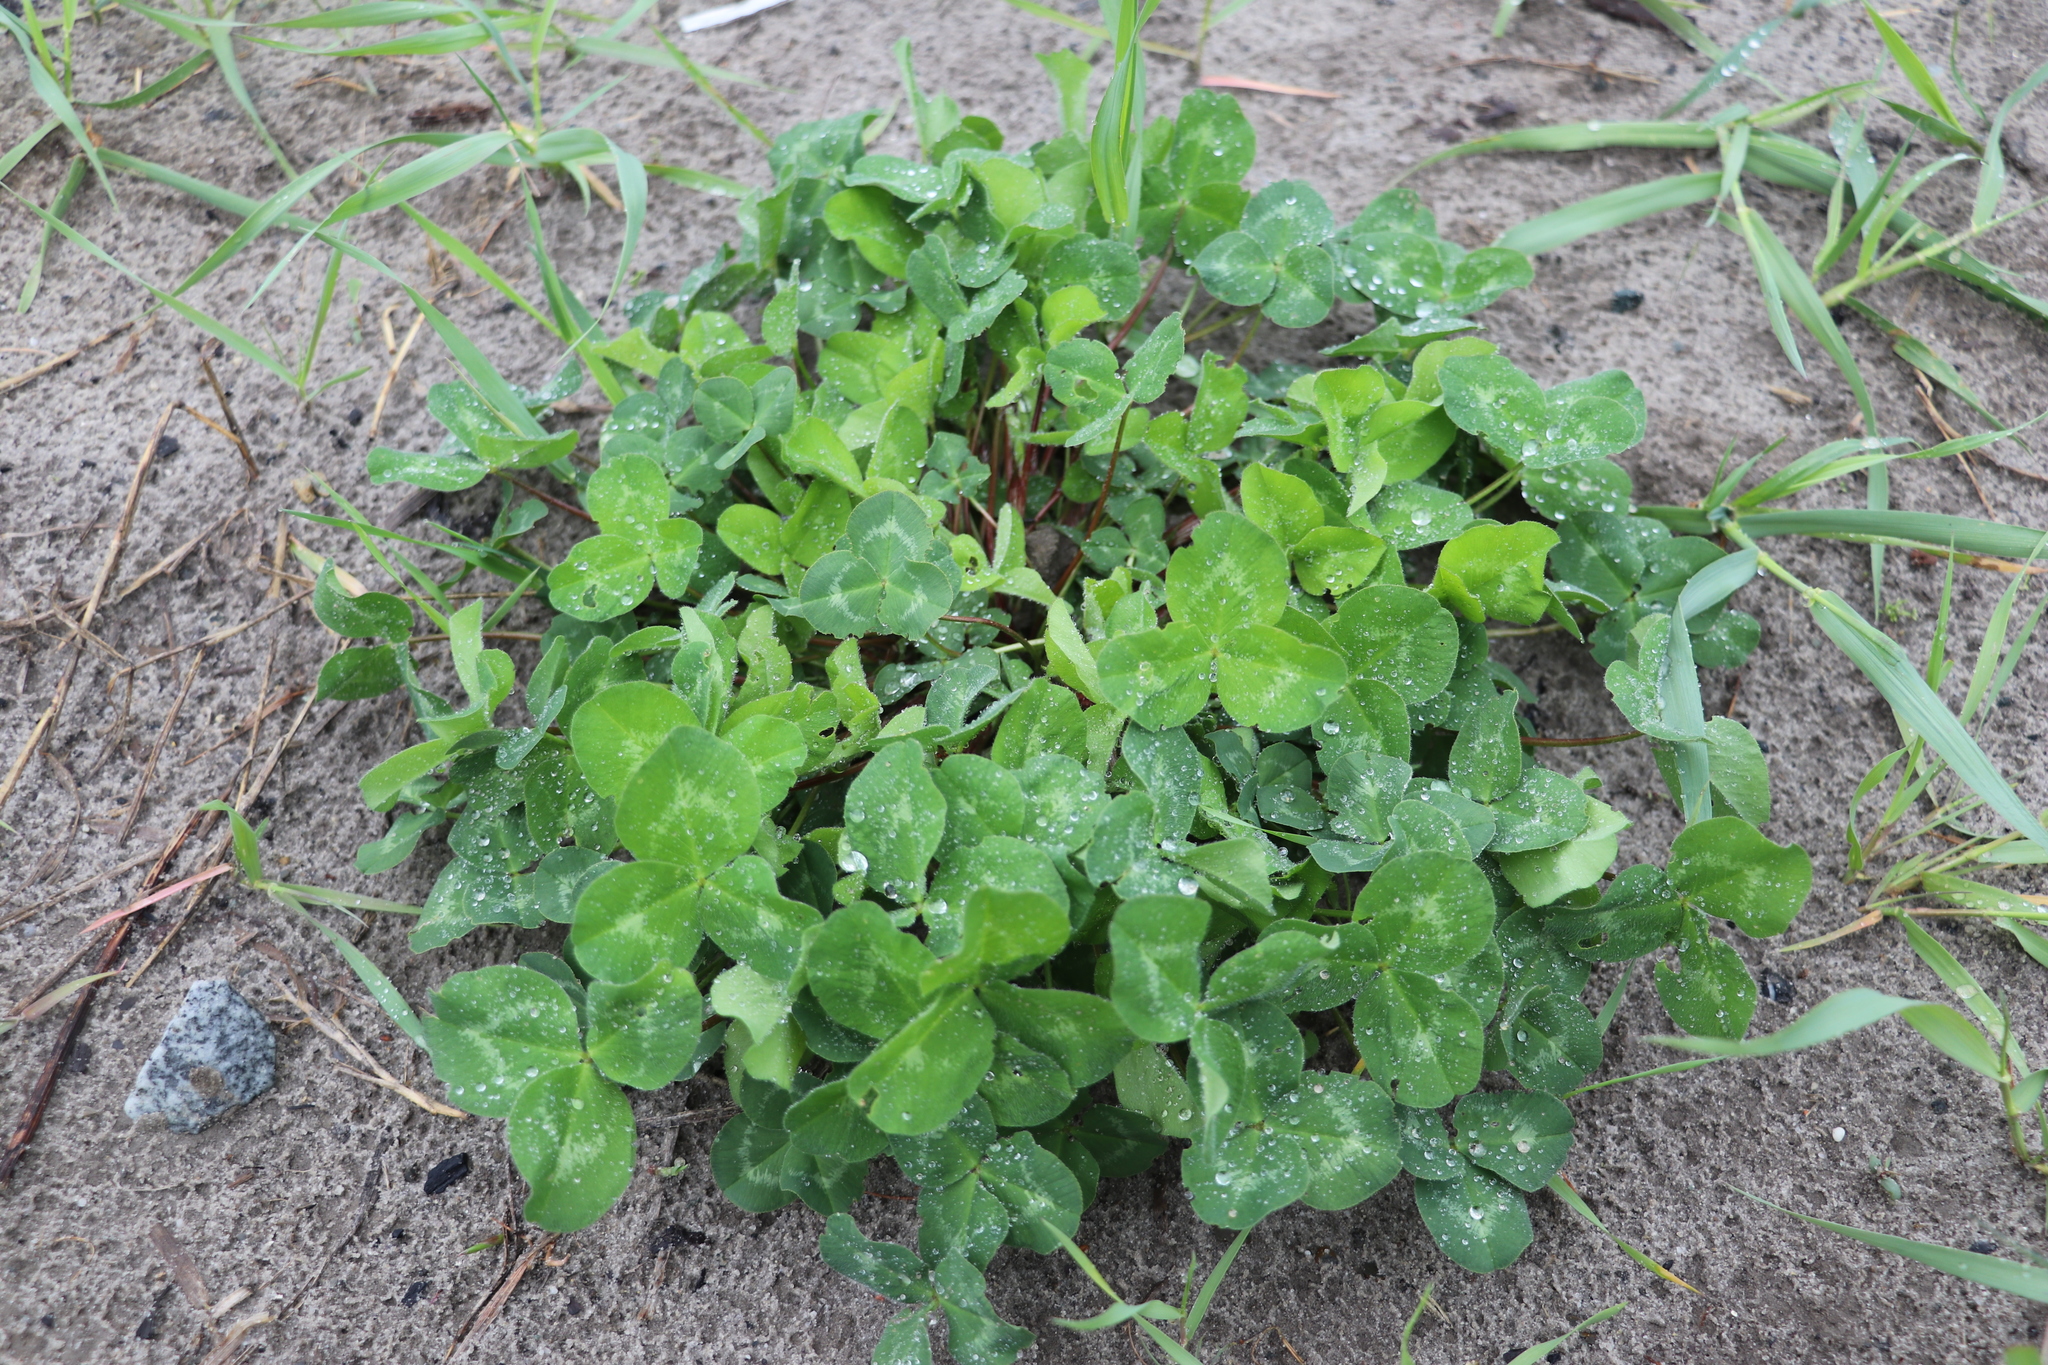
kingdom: Plantae
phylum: Tracheophyta
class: Magnoliopsida
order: Fabales
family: Fabaceae
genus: Trifolium
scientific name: Trifolium pratense
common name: Red clover
